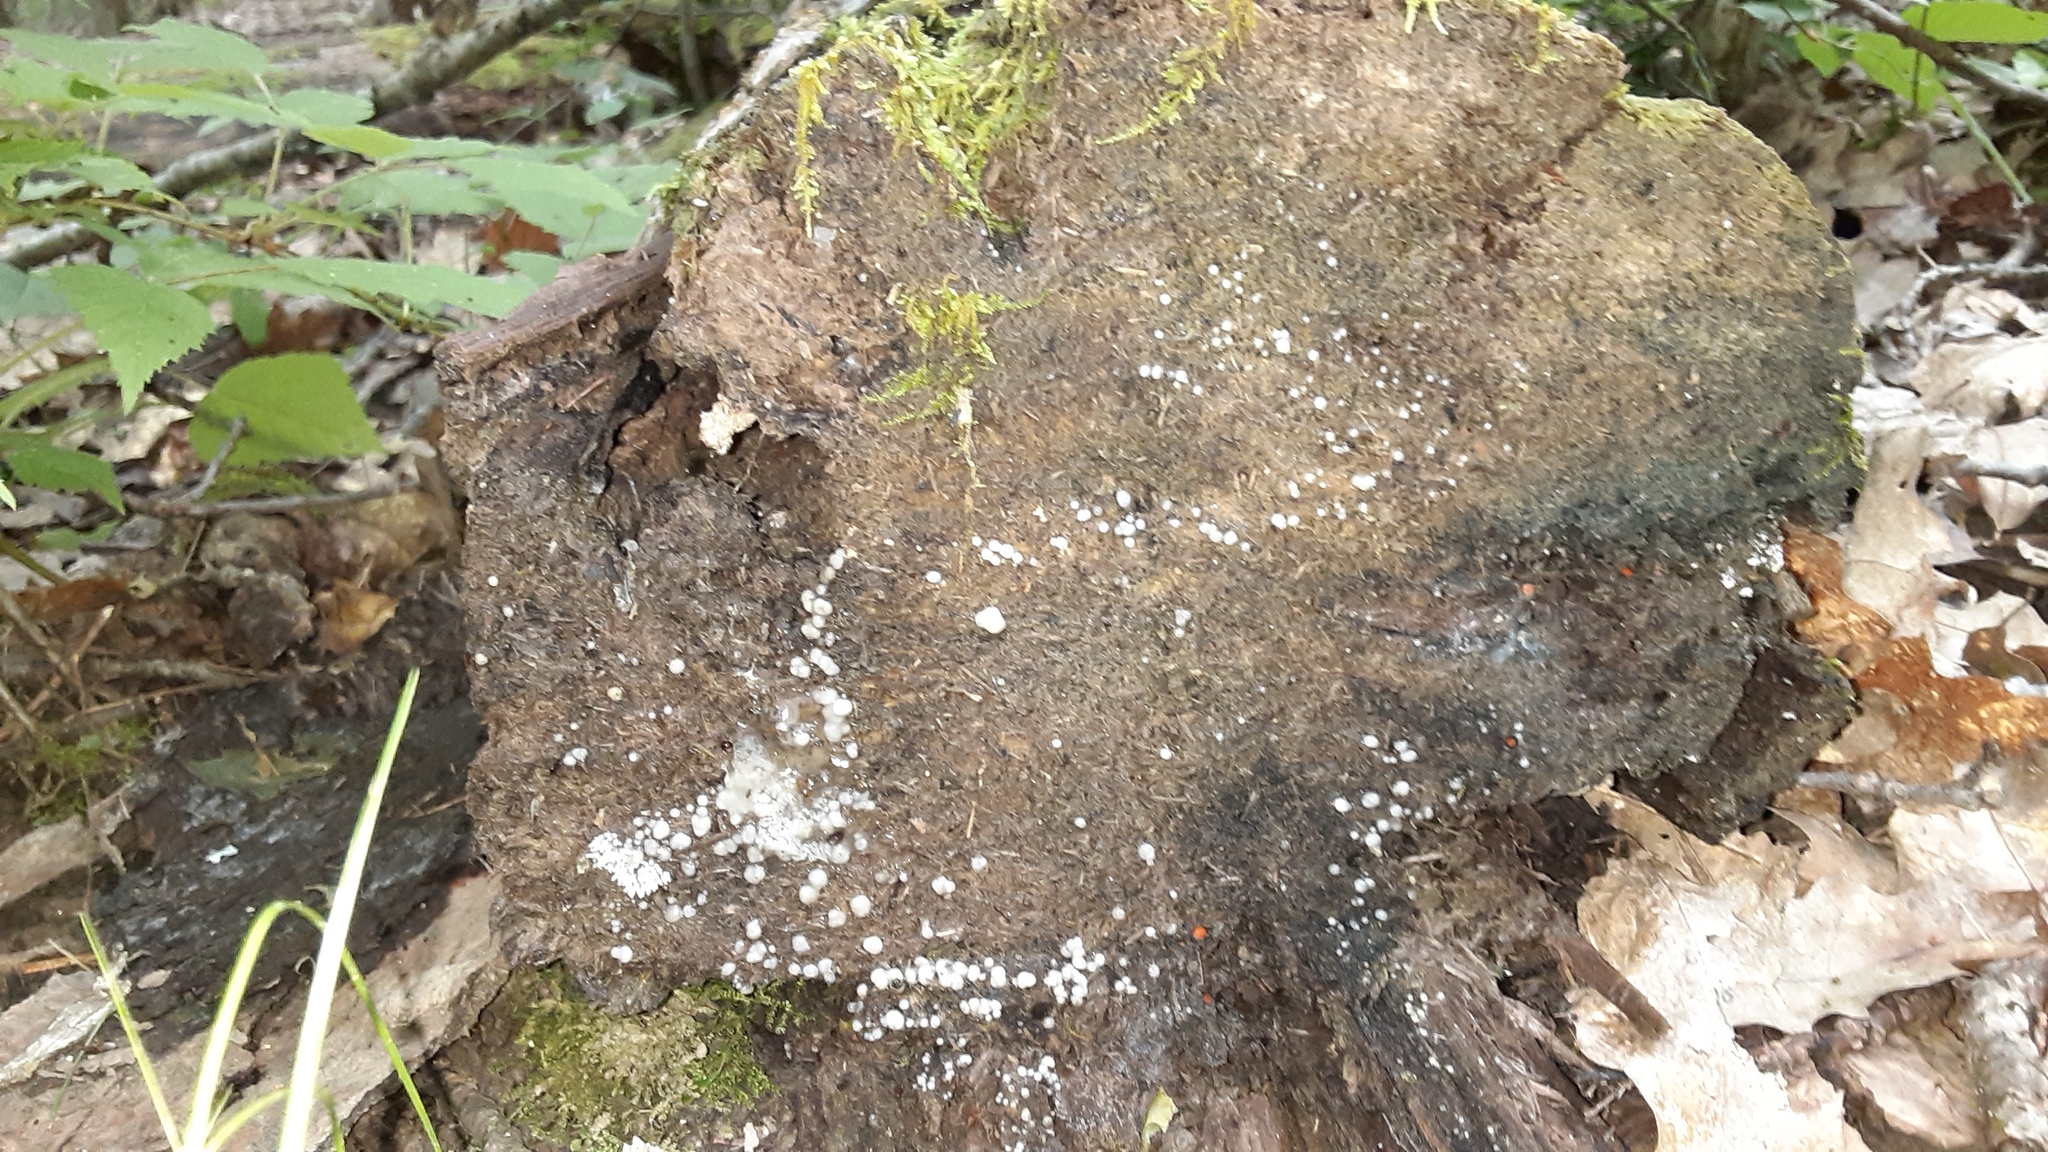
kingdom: Fungi
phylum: Basidiomycota
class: Atractiellomycetes
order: Atractiellales
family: Phleogenaceae
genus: Helicogloea
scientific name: Helicogloea compressa
